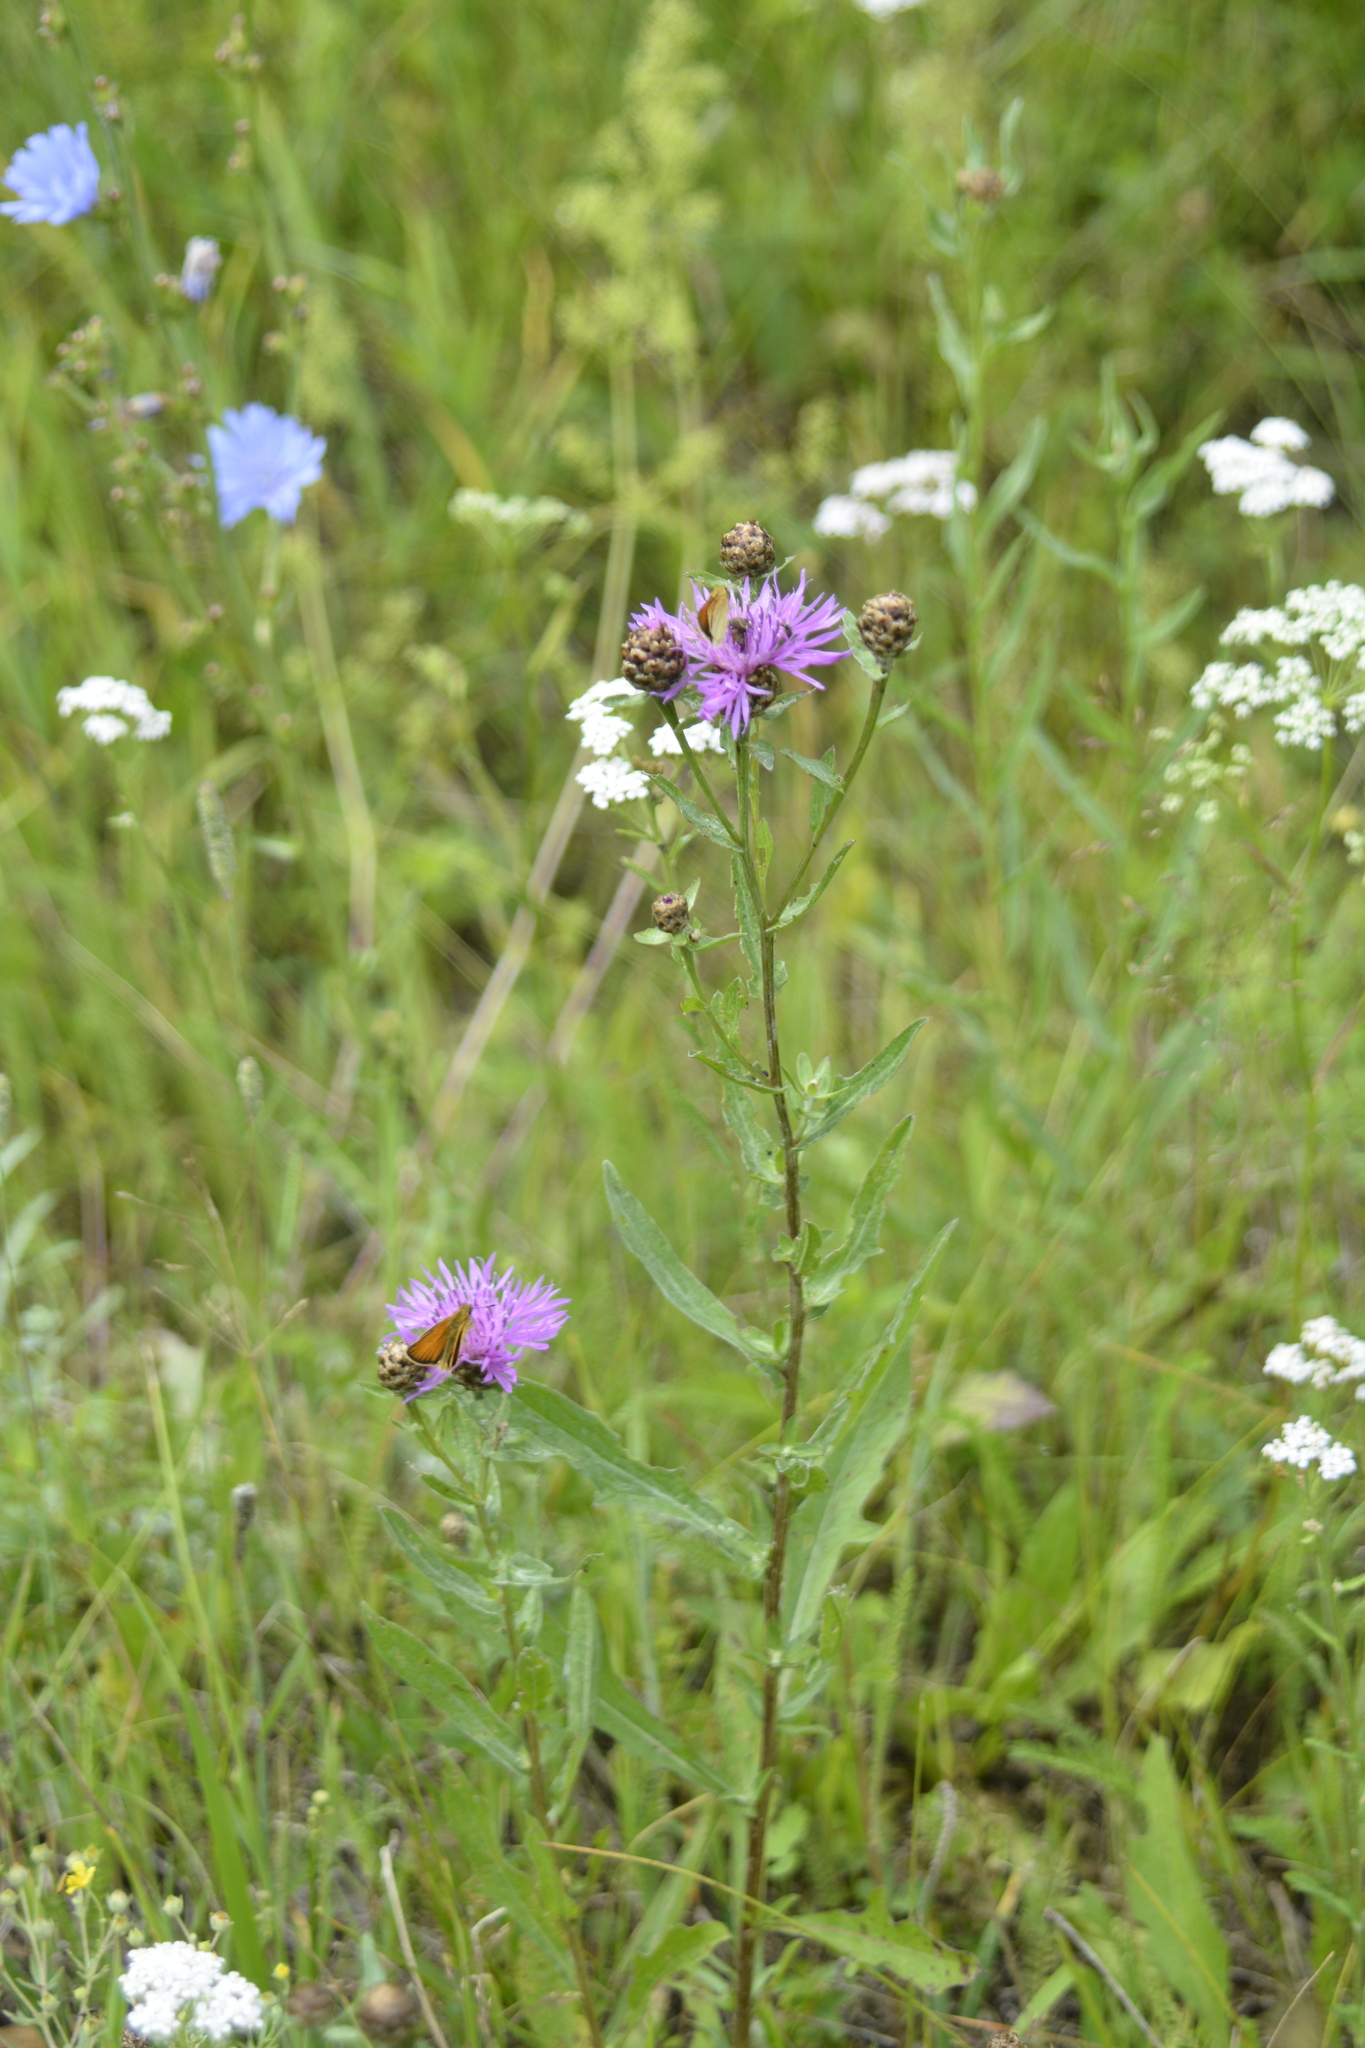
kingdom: Plantae
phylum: Tracheophyta
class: Magnoliopsida
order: Asterales
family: Asteraceae
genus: Centaurea
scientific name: Centaurea jacea
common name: Brown knapweed
